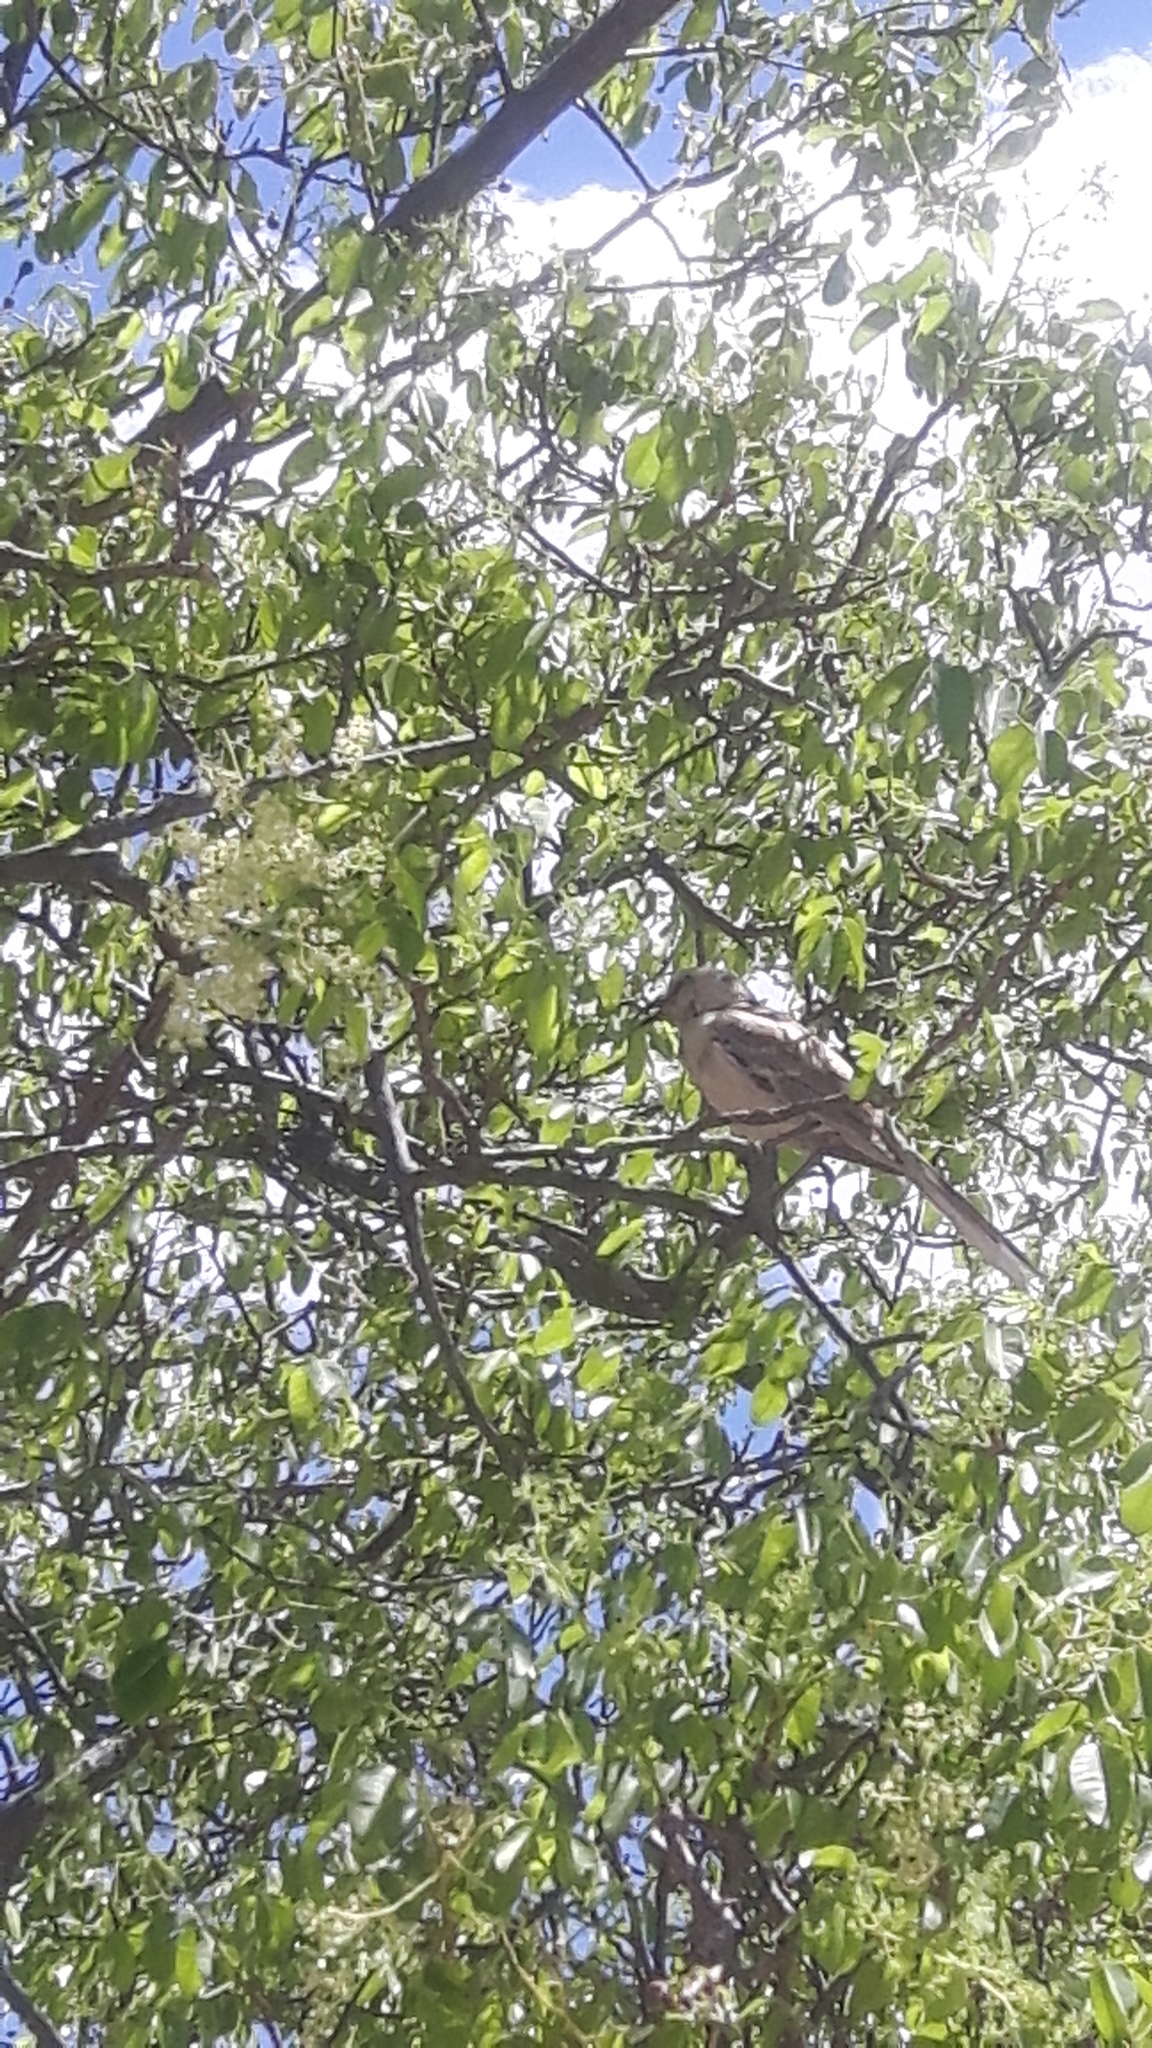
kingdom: Animalia
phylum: Chordata
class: Aves
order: Passeriformes
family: Mimidae
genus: Mimus
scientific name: Mimus saturninus
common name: Chalk-browed mockingbird
